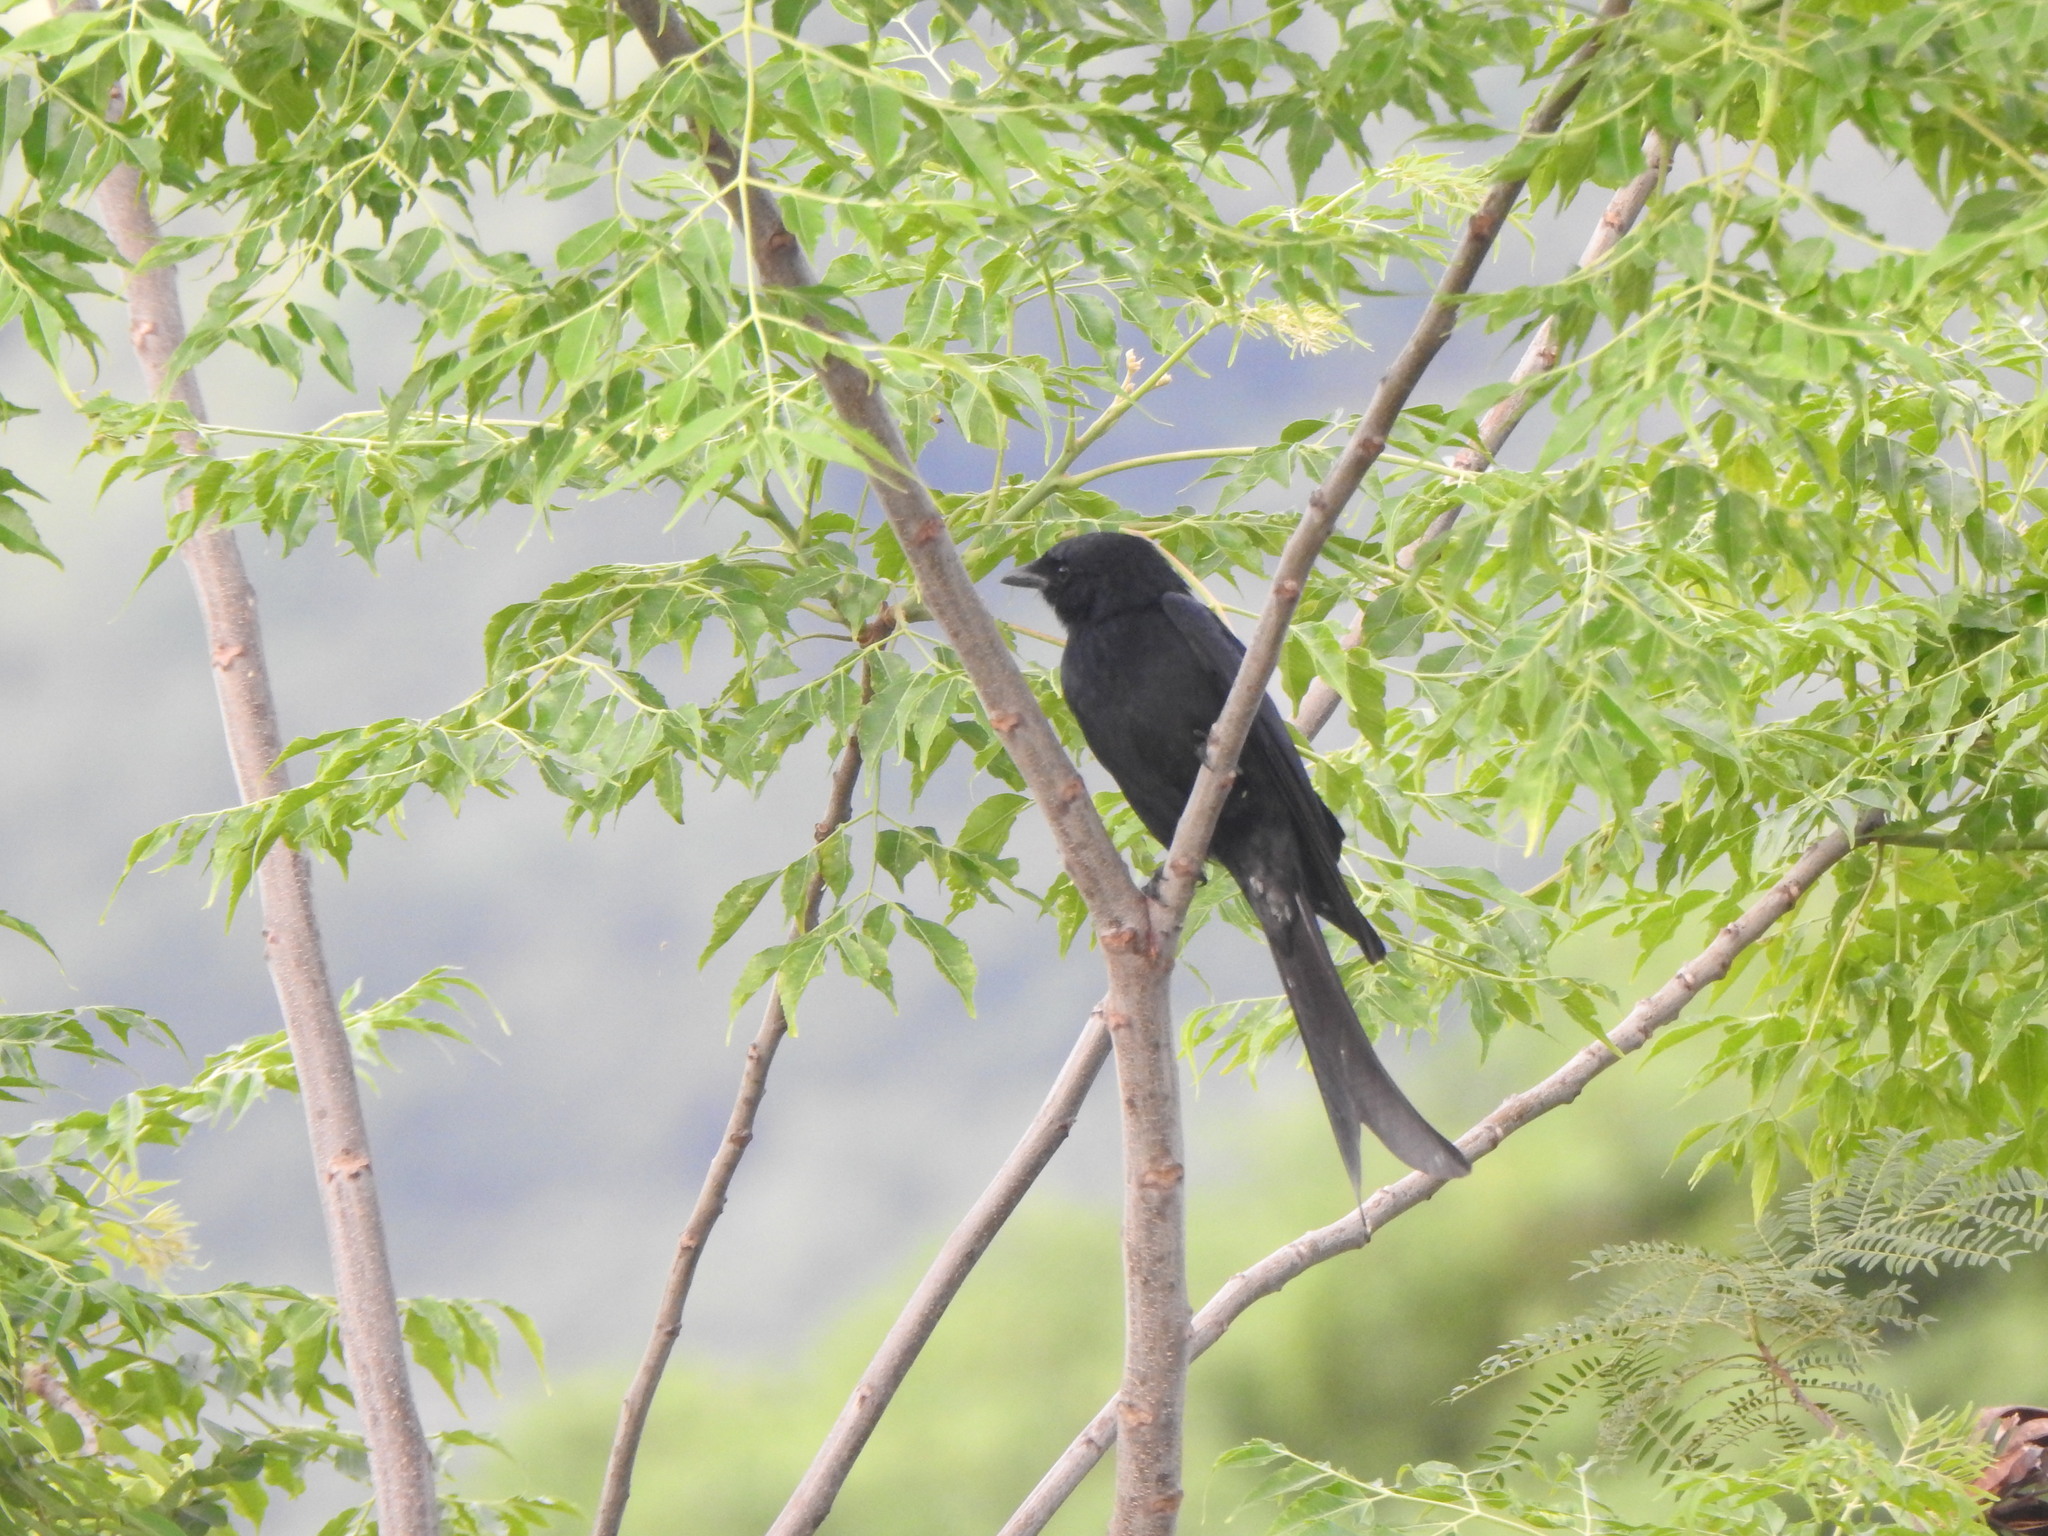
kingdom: Animalia
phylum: Chordata
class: Aves
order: Passeriformes
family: Dicruridae
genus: Dicrurus
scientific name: Dicrurus macrocercus
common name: Black drongo
